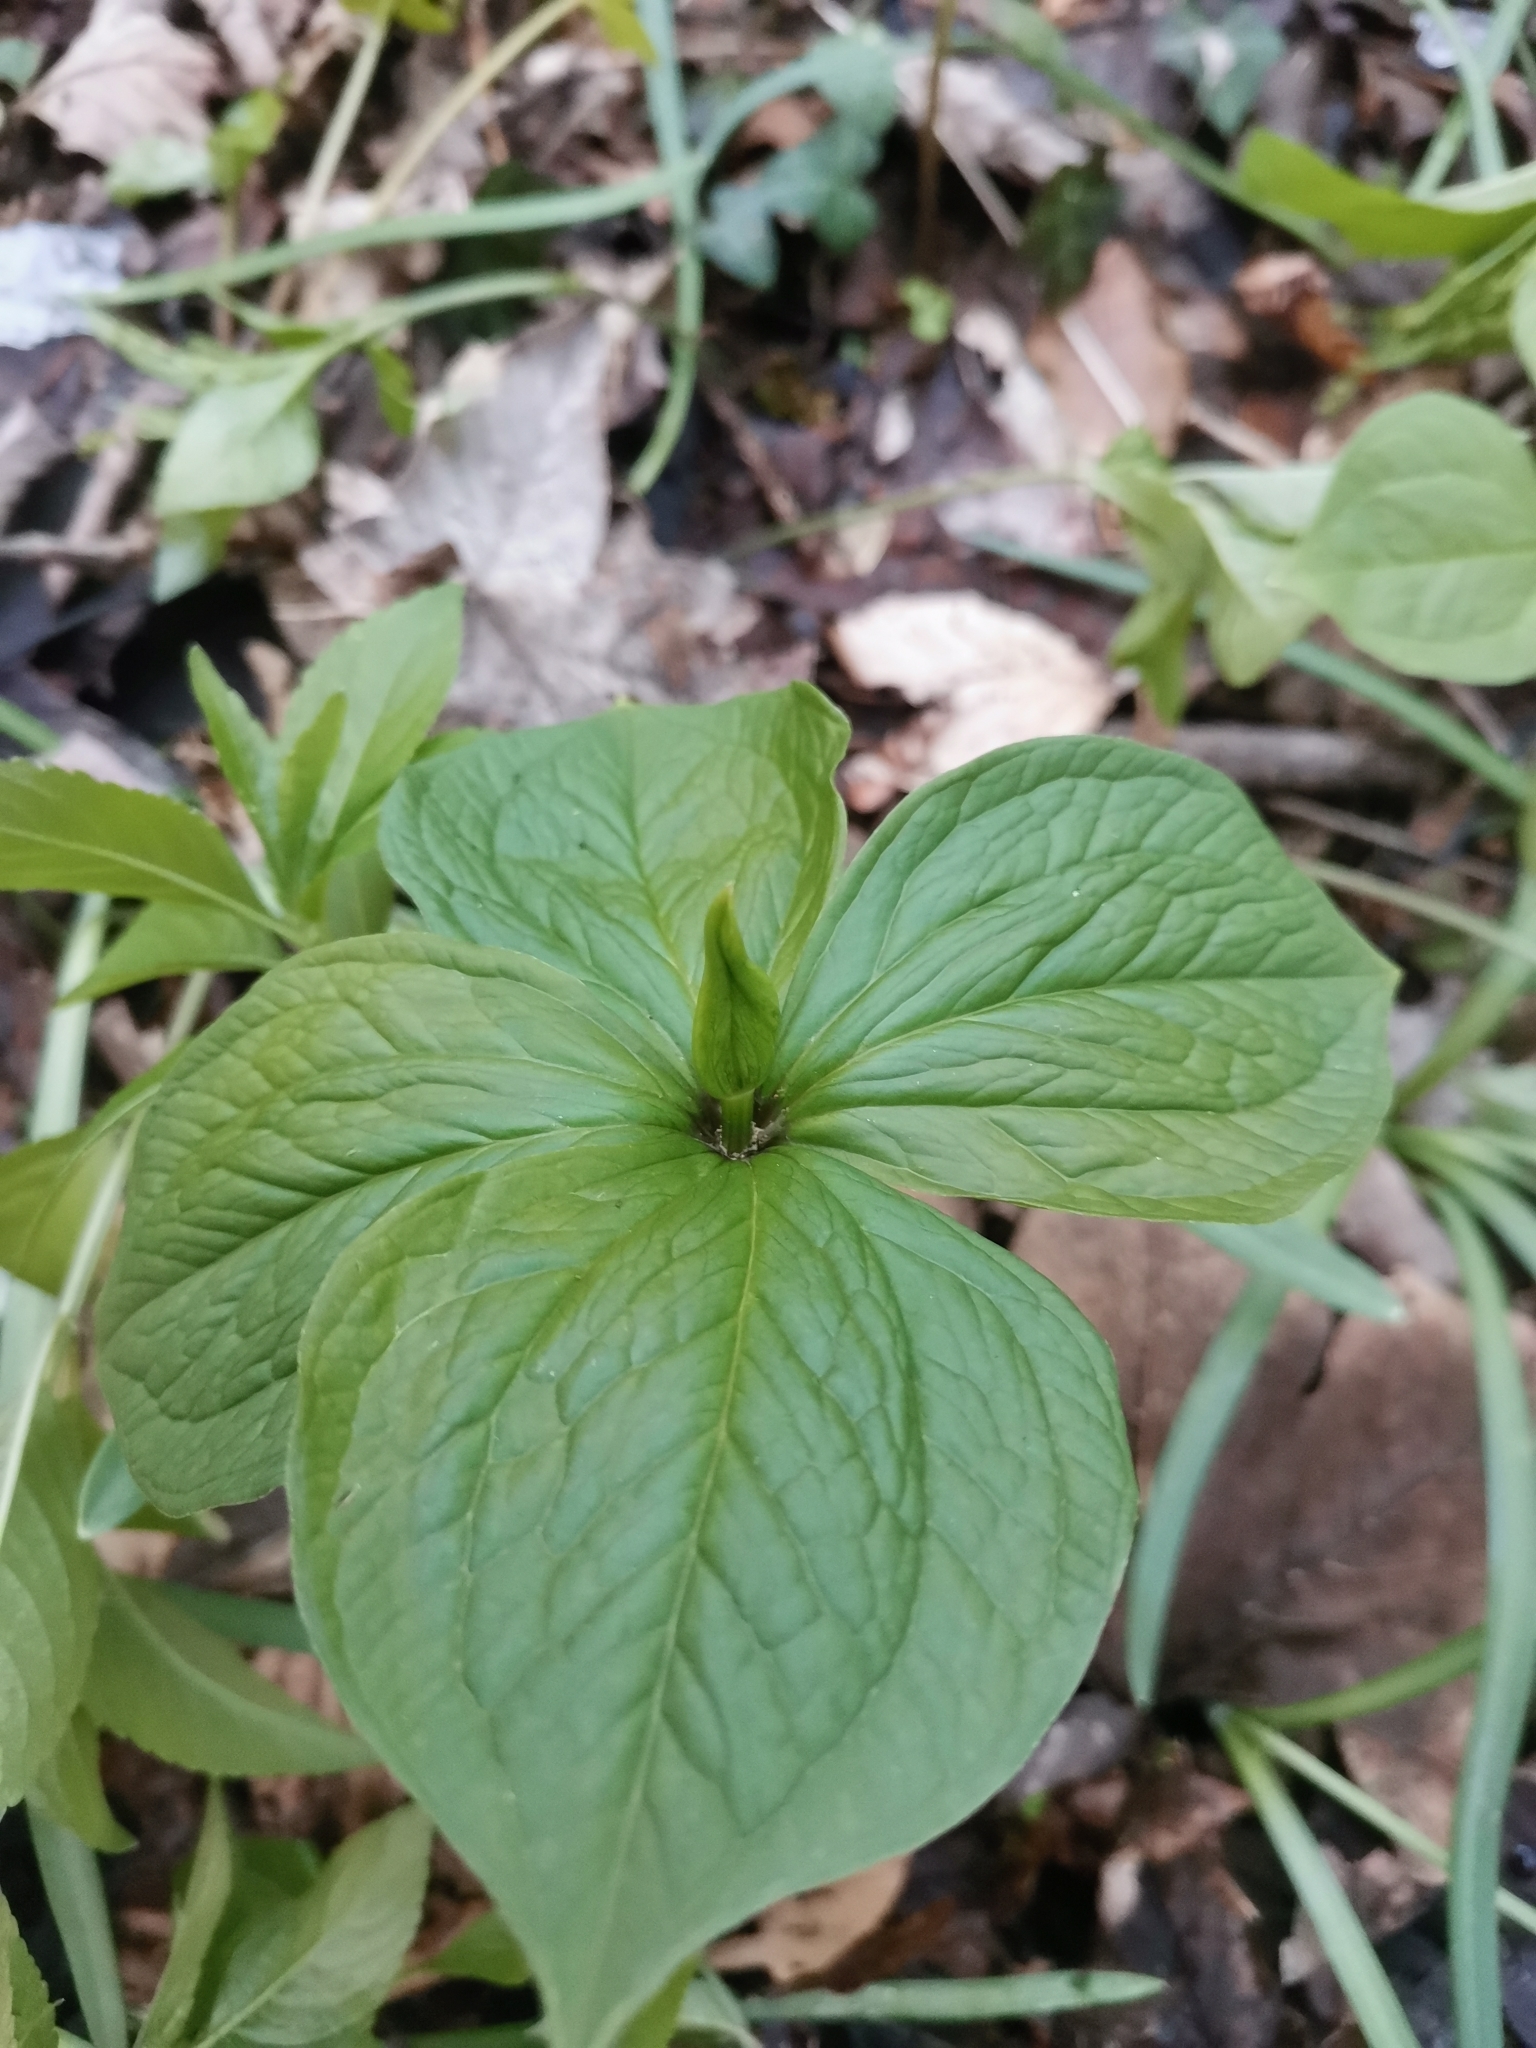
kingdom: Plantae
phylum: Tracheophyta
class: Liliopsida
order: Liliales
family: Melanthiaceae
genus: Paris
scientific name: Paris quadrifolia
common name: Herb-paris
